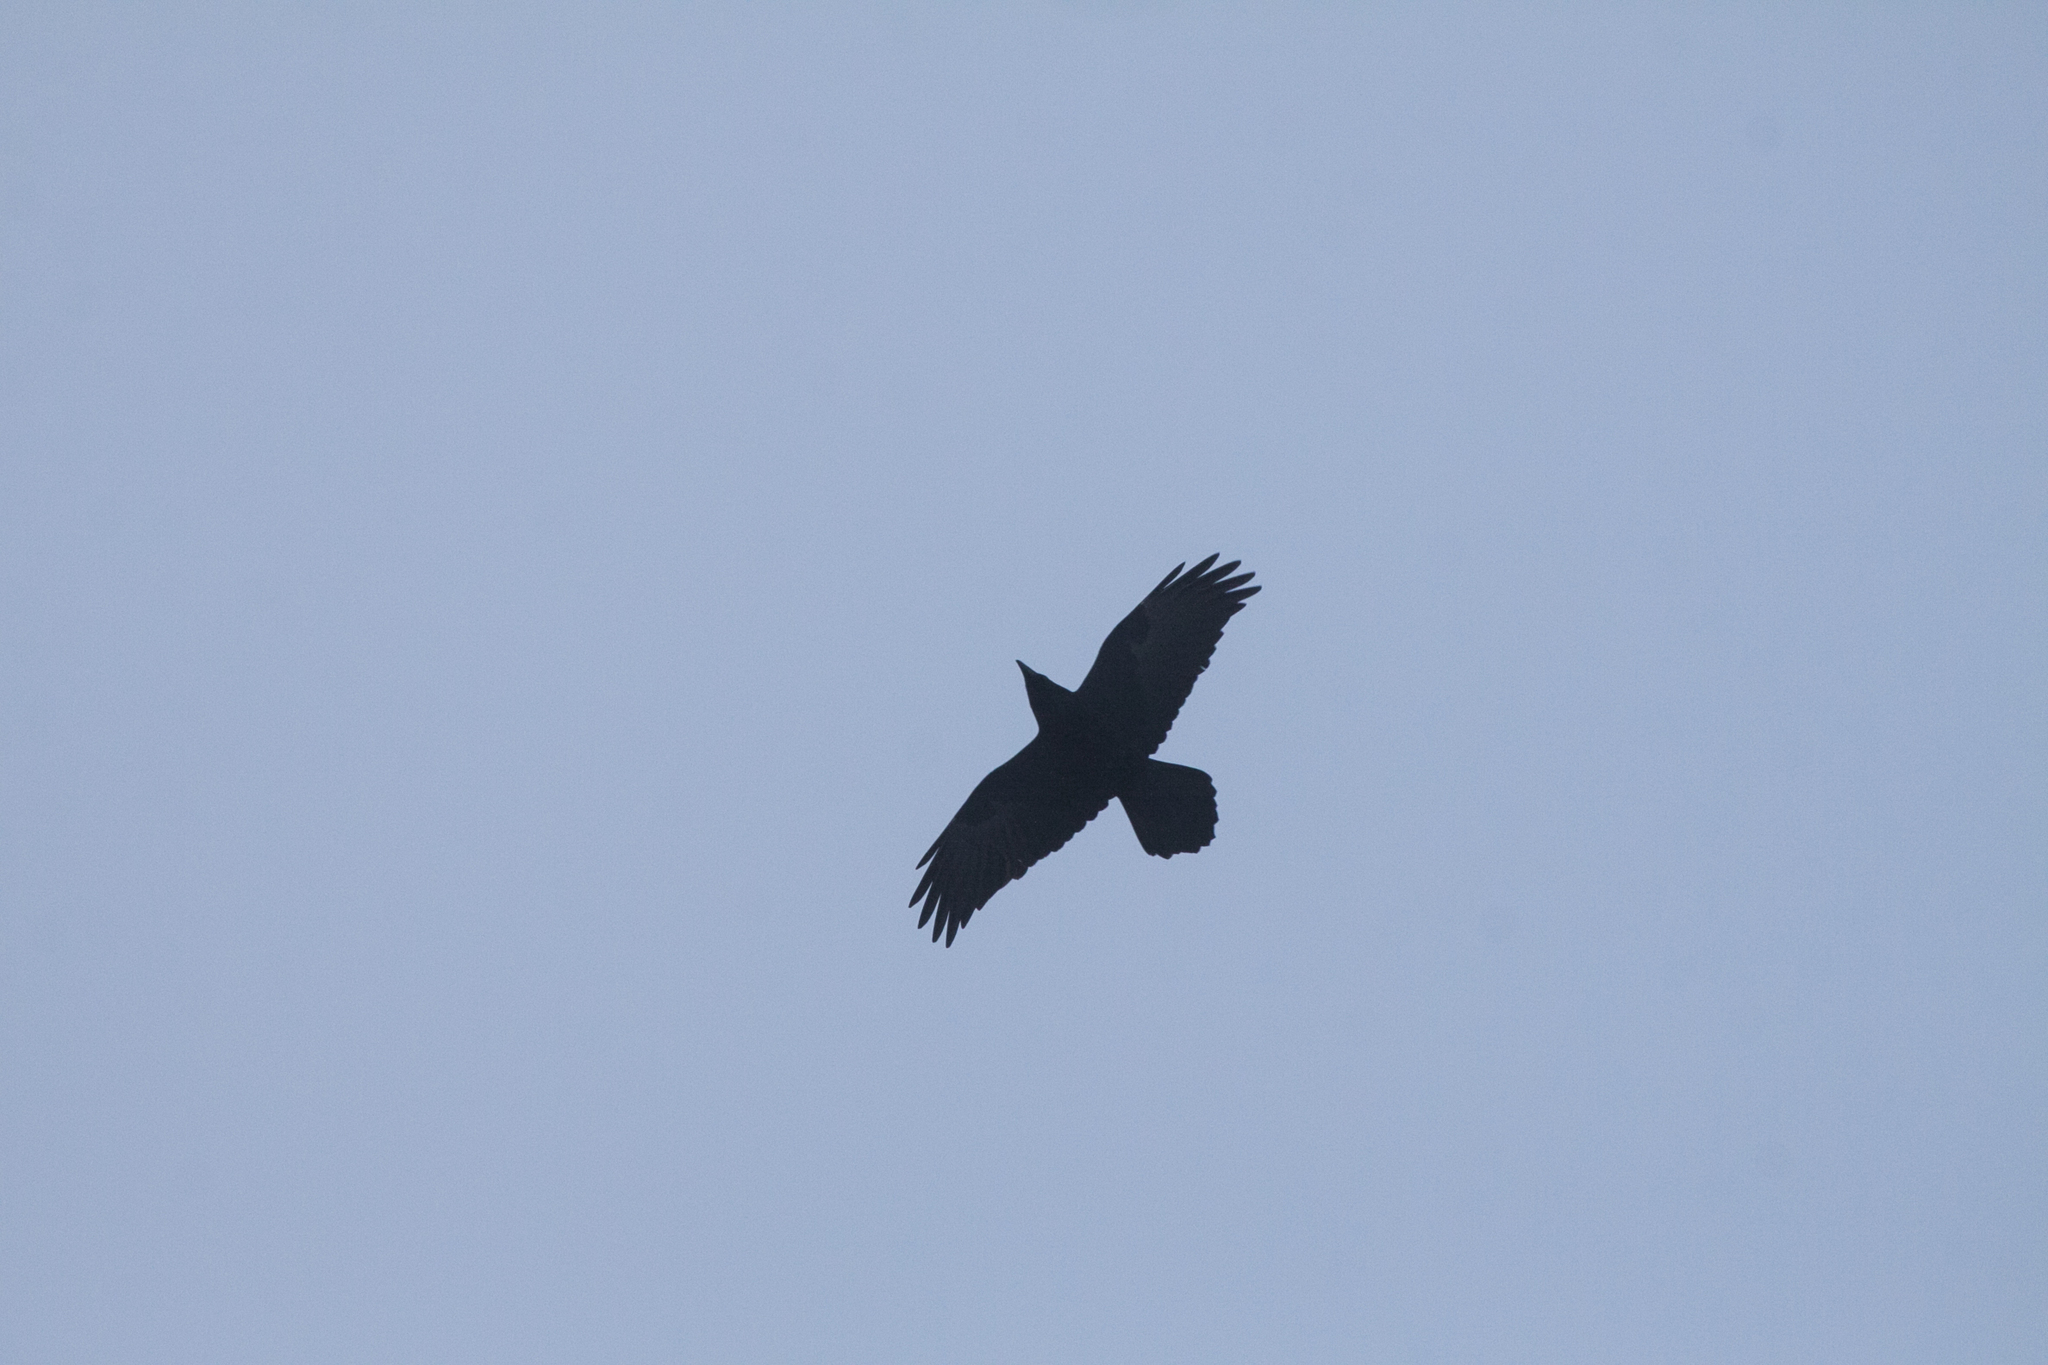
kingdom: Animalia
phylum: Chordata
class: Aves
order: Passeriformes
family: Corvidae
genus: Corvus
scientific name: Corvus corax
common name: Common raven
